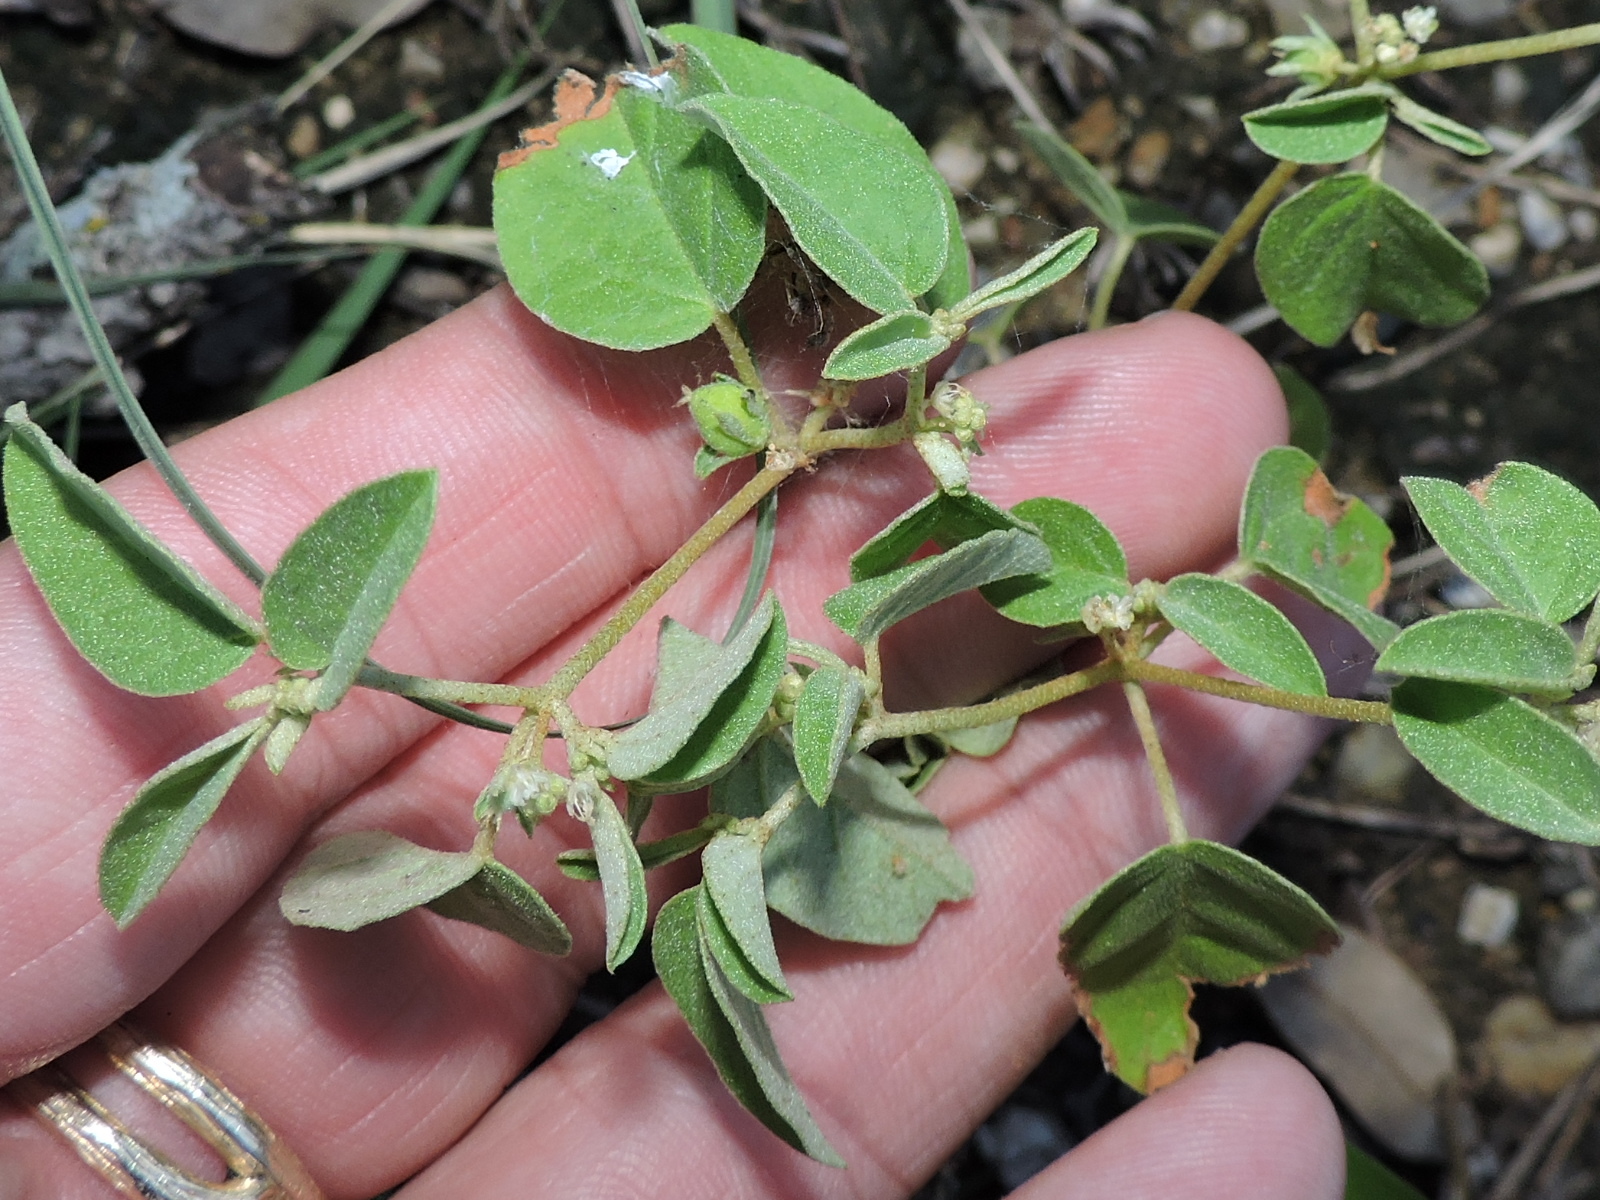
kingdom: Plantae
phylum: Tracheophyta
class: Magnoliopsida
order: Malpighiales
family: Euphorbiaceae
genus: Croton
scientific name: Croton monanthogynus
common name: One-seed croton
